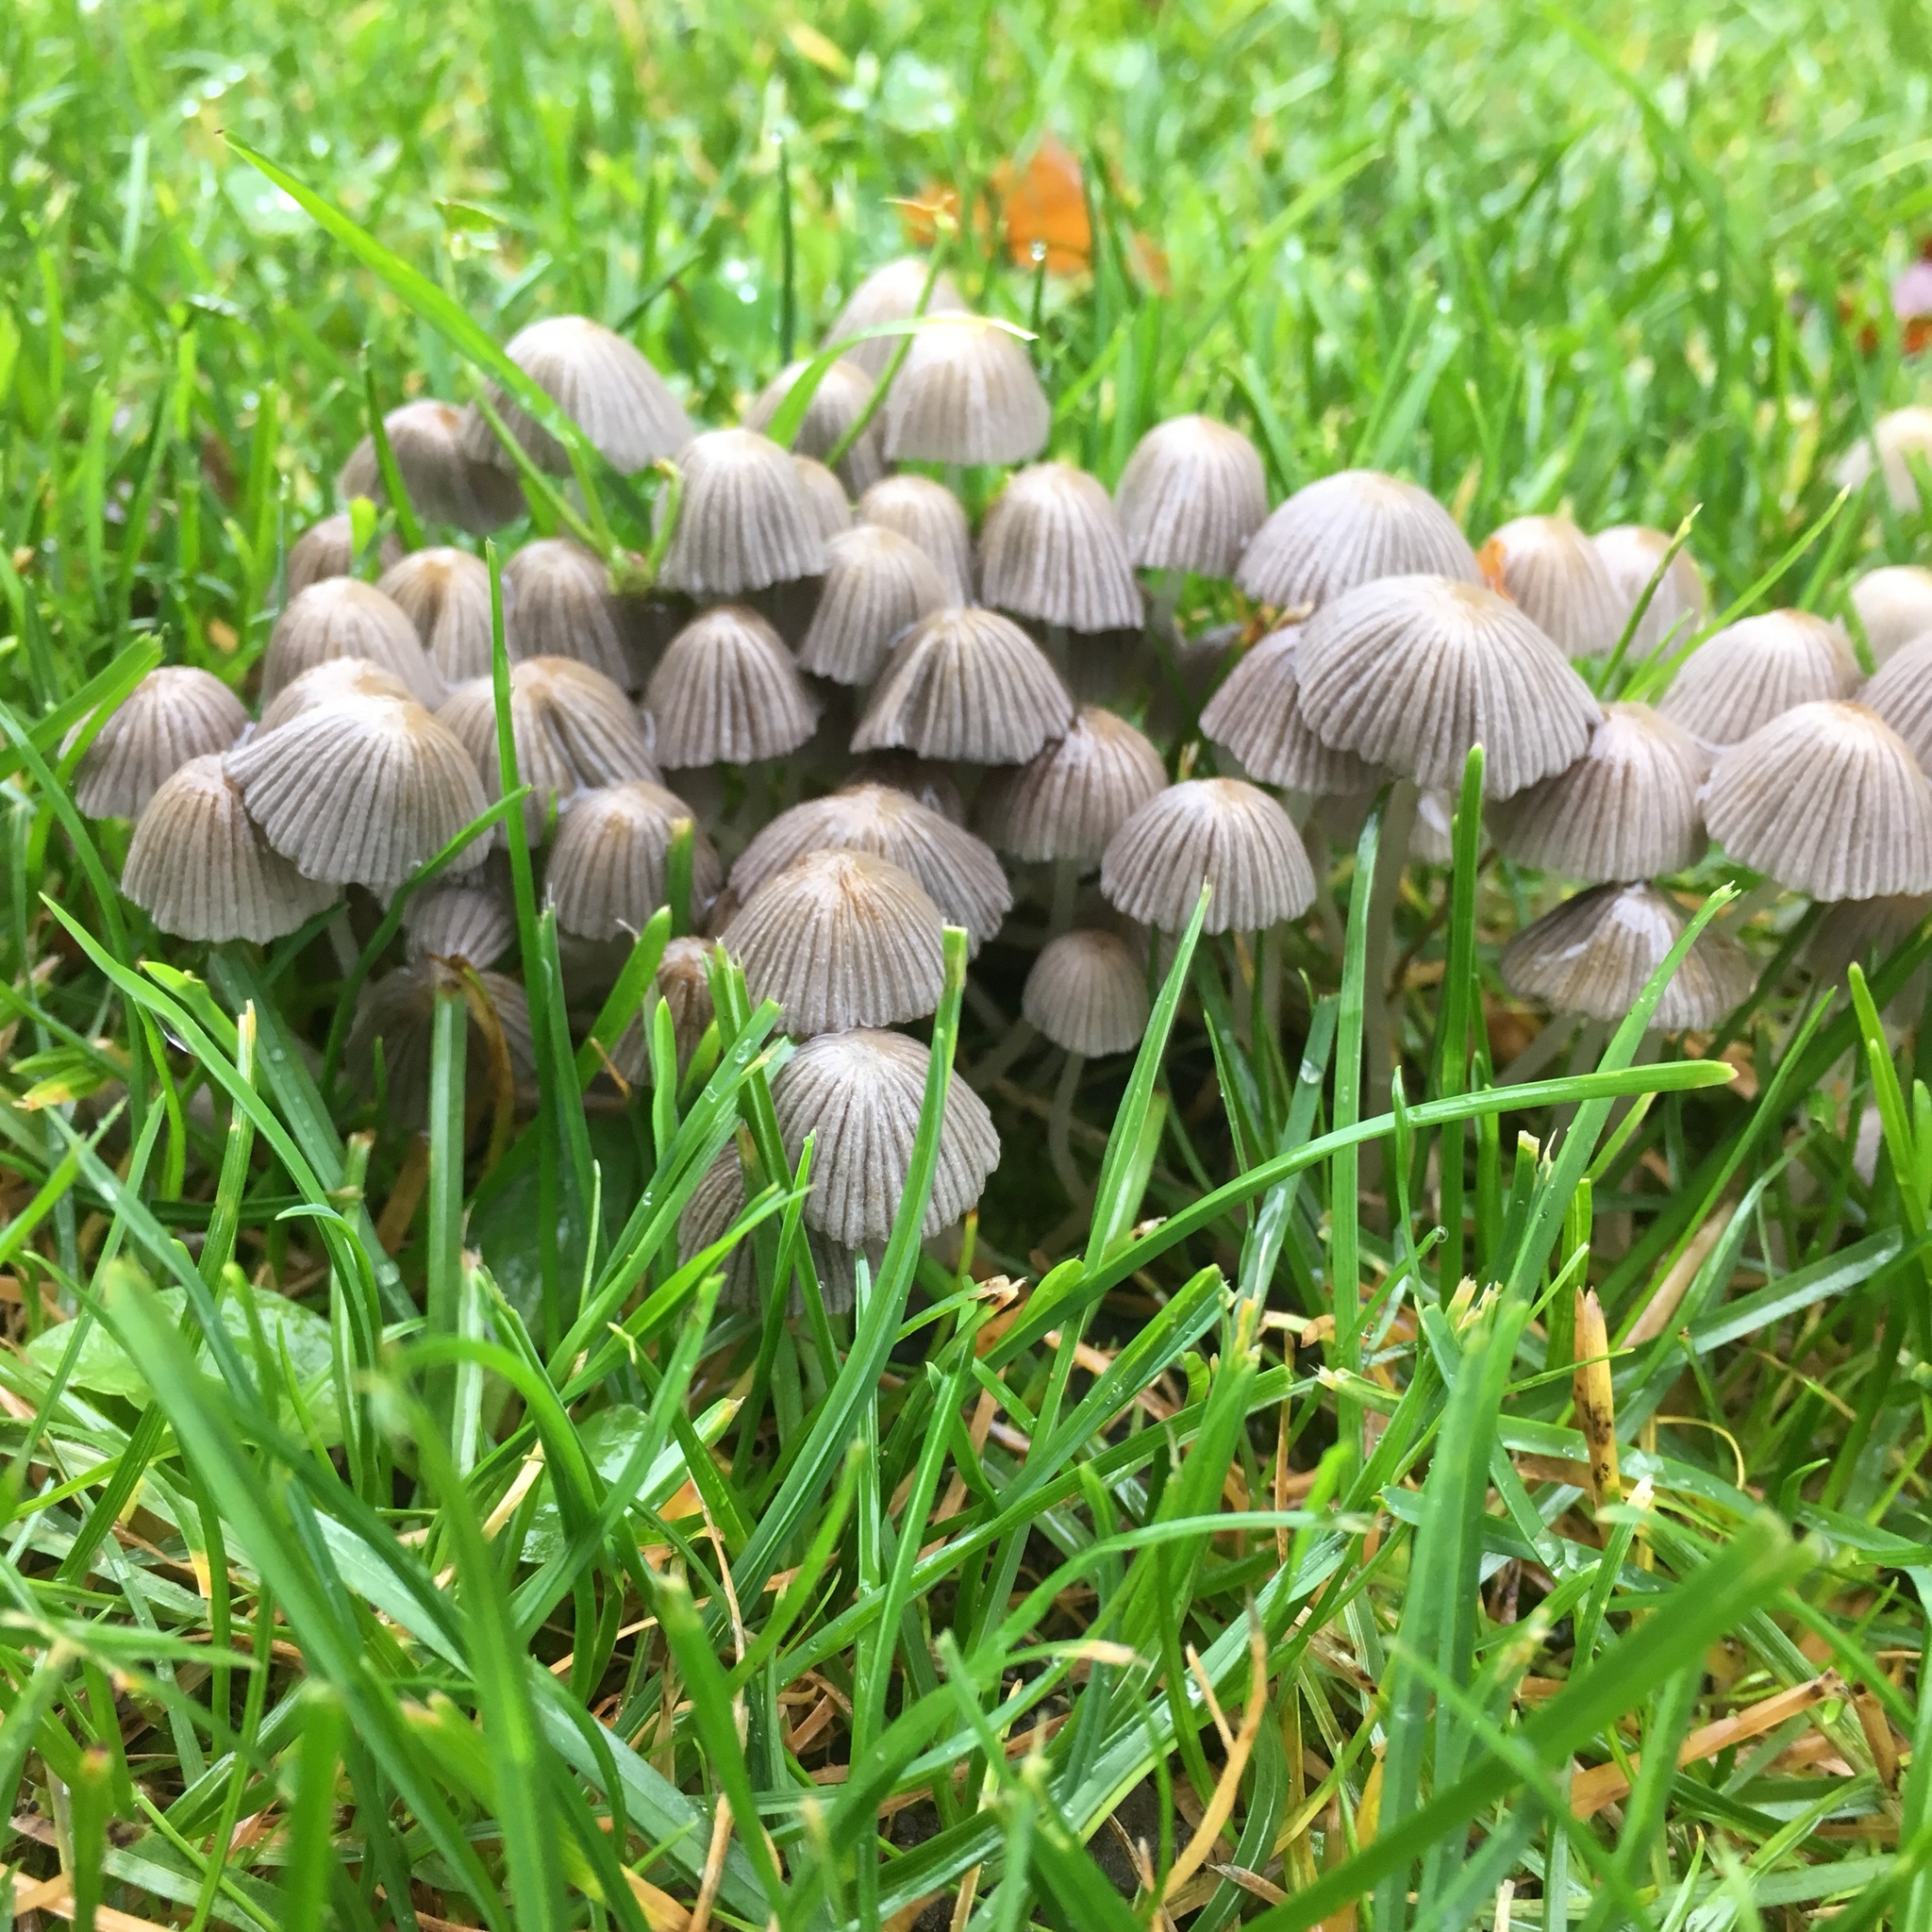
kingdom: Fungi
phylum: Basidiomycota
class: Agaricomycetes
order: Agaricales
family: Psathyrellaceae
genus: Coprinellus
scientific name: Coprinellus disseminatus
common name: Fairies' bonnets
